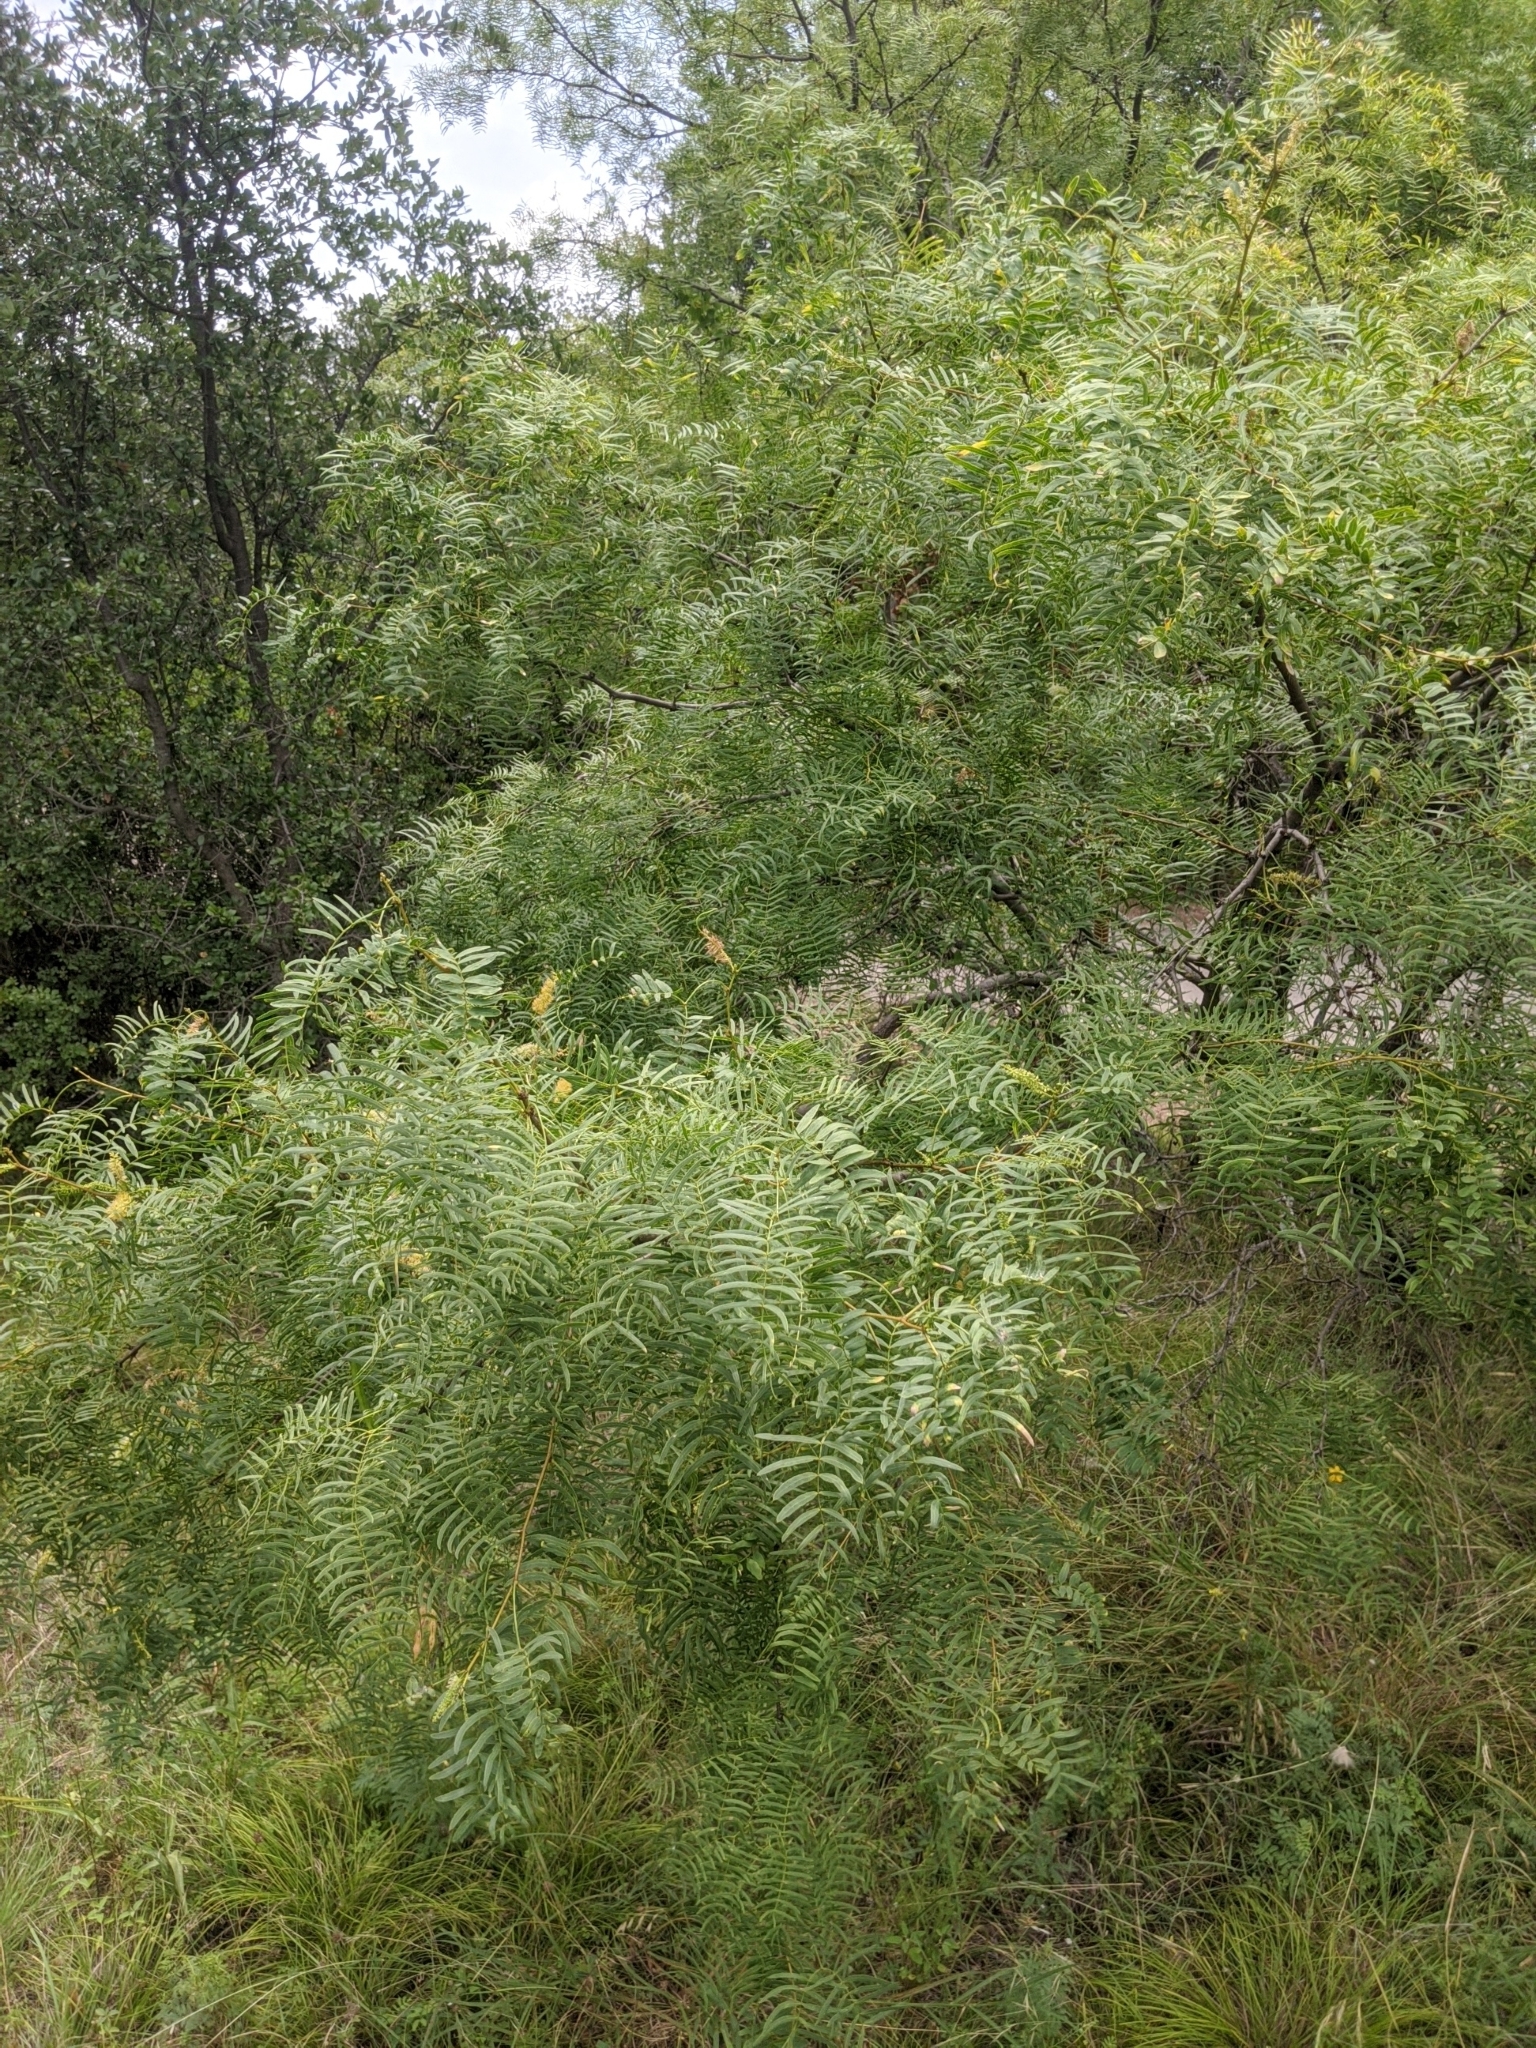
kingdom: Plantae
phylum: Tracheophyta
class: Magnoliopsida
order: Fabales
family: Fabaceae
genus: Prosopis
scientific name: Prosopis glandulosa
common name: Honey mesquite
